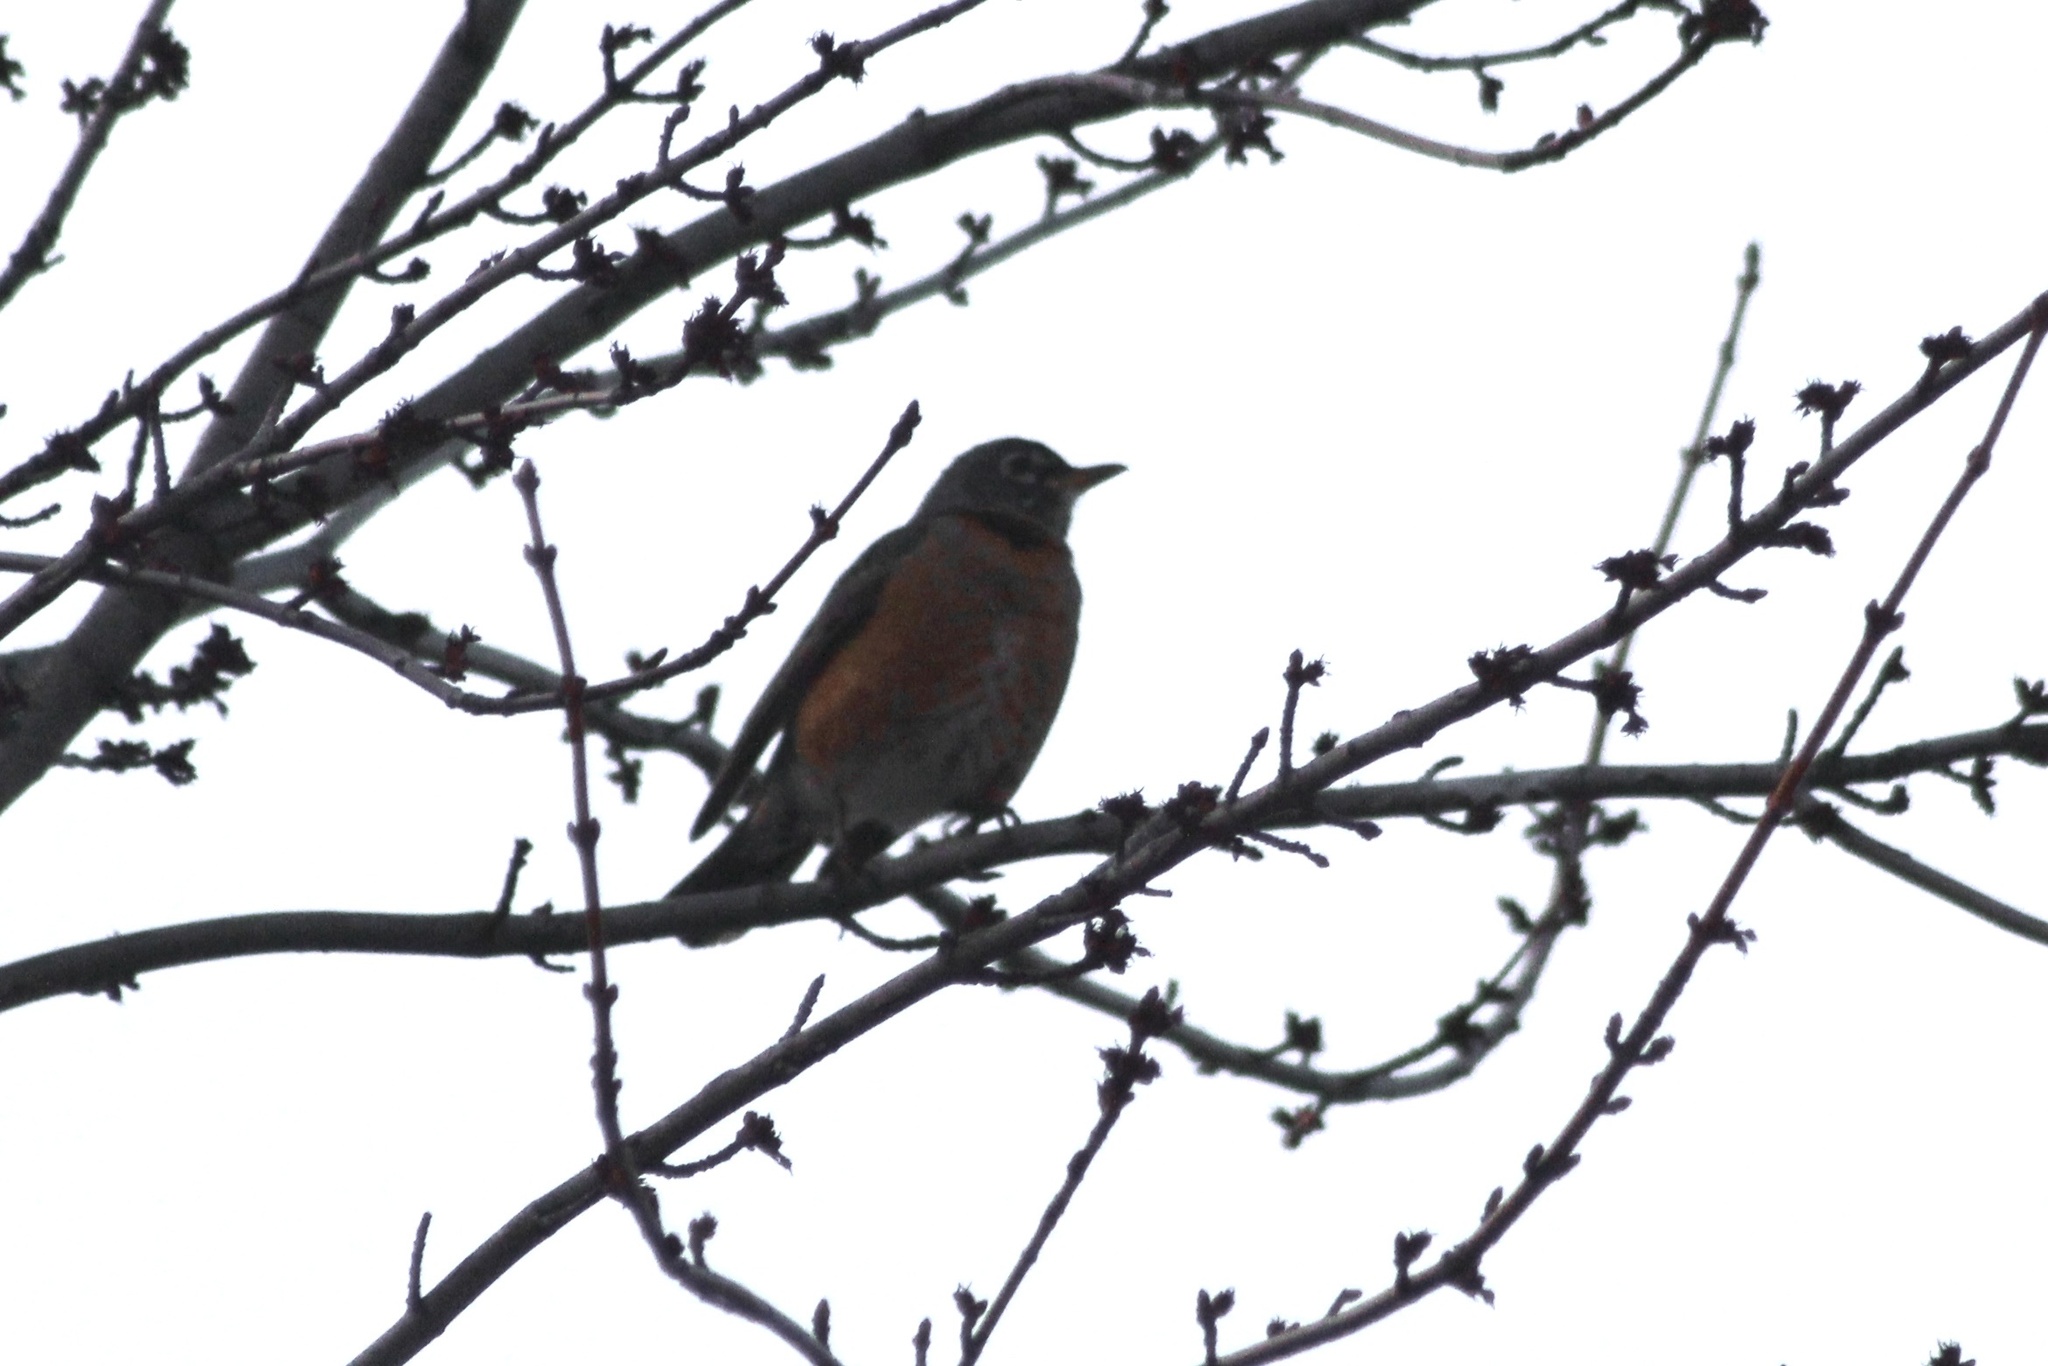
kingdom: Animalia
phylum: Chordata
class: Aves
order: Passeriformes
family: Turdidae
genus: Turdus
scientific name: Turdus migratorius
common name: American robin
